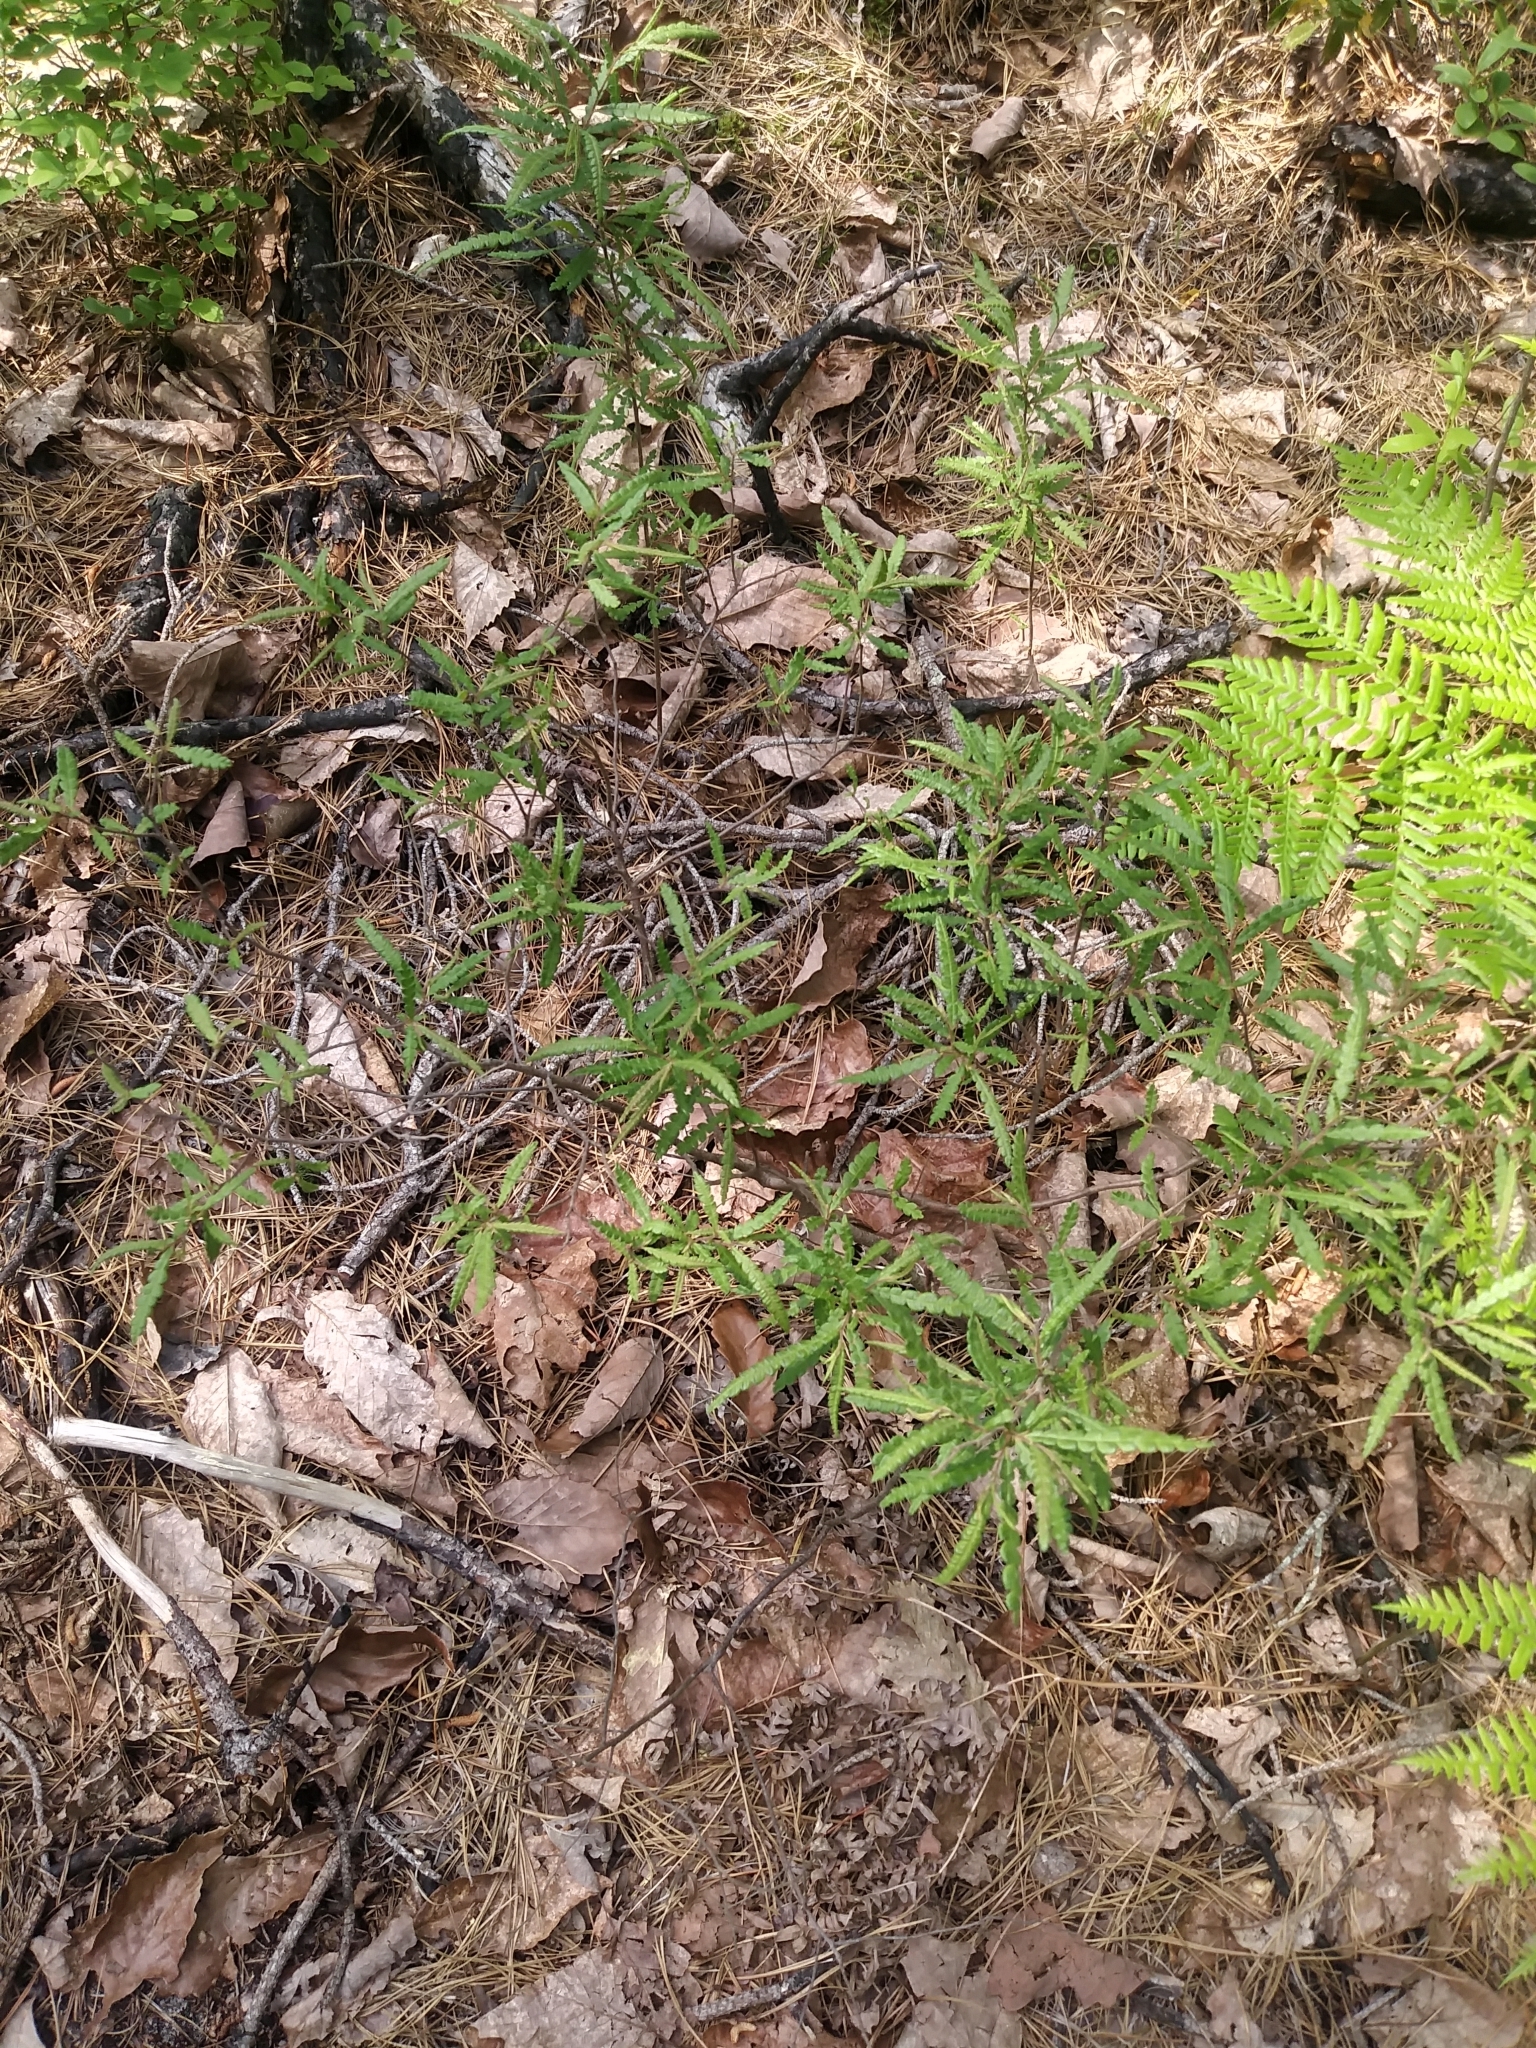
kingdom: Plantae
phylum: Tracheophyta
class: Magnoliopsida
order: Fagales
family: Myricaceae
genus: Comptonia
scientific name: Comptonia peregrina
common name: Sweet-fern
